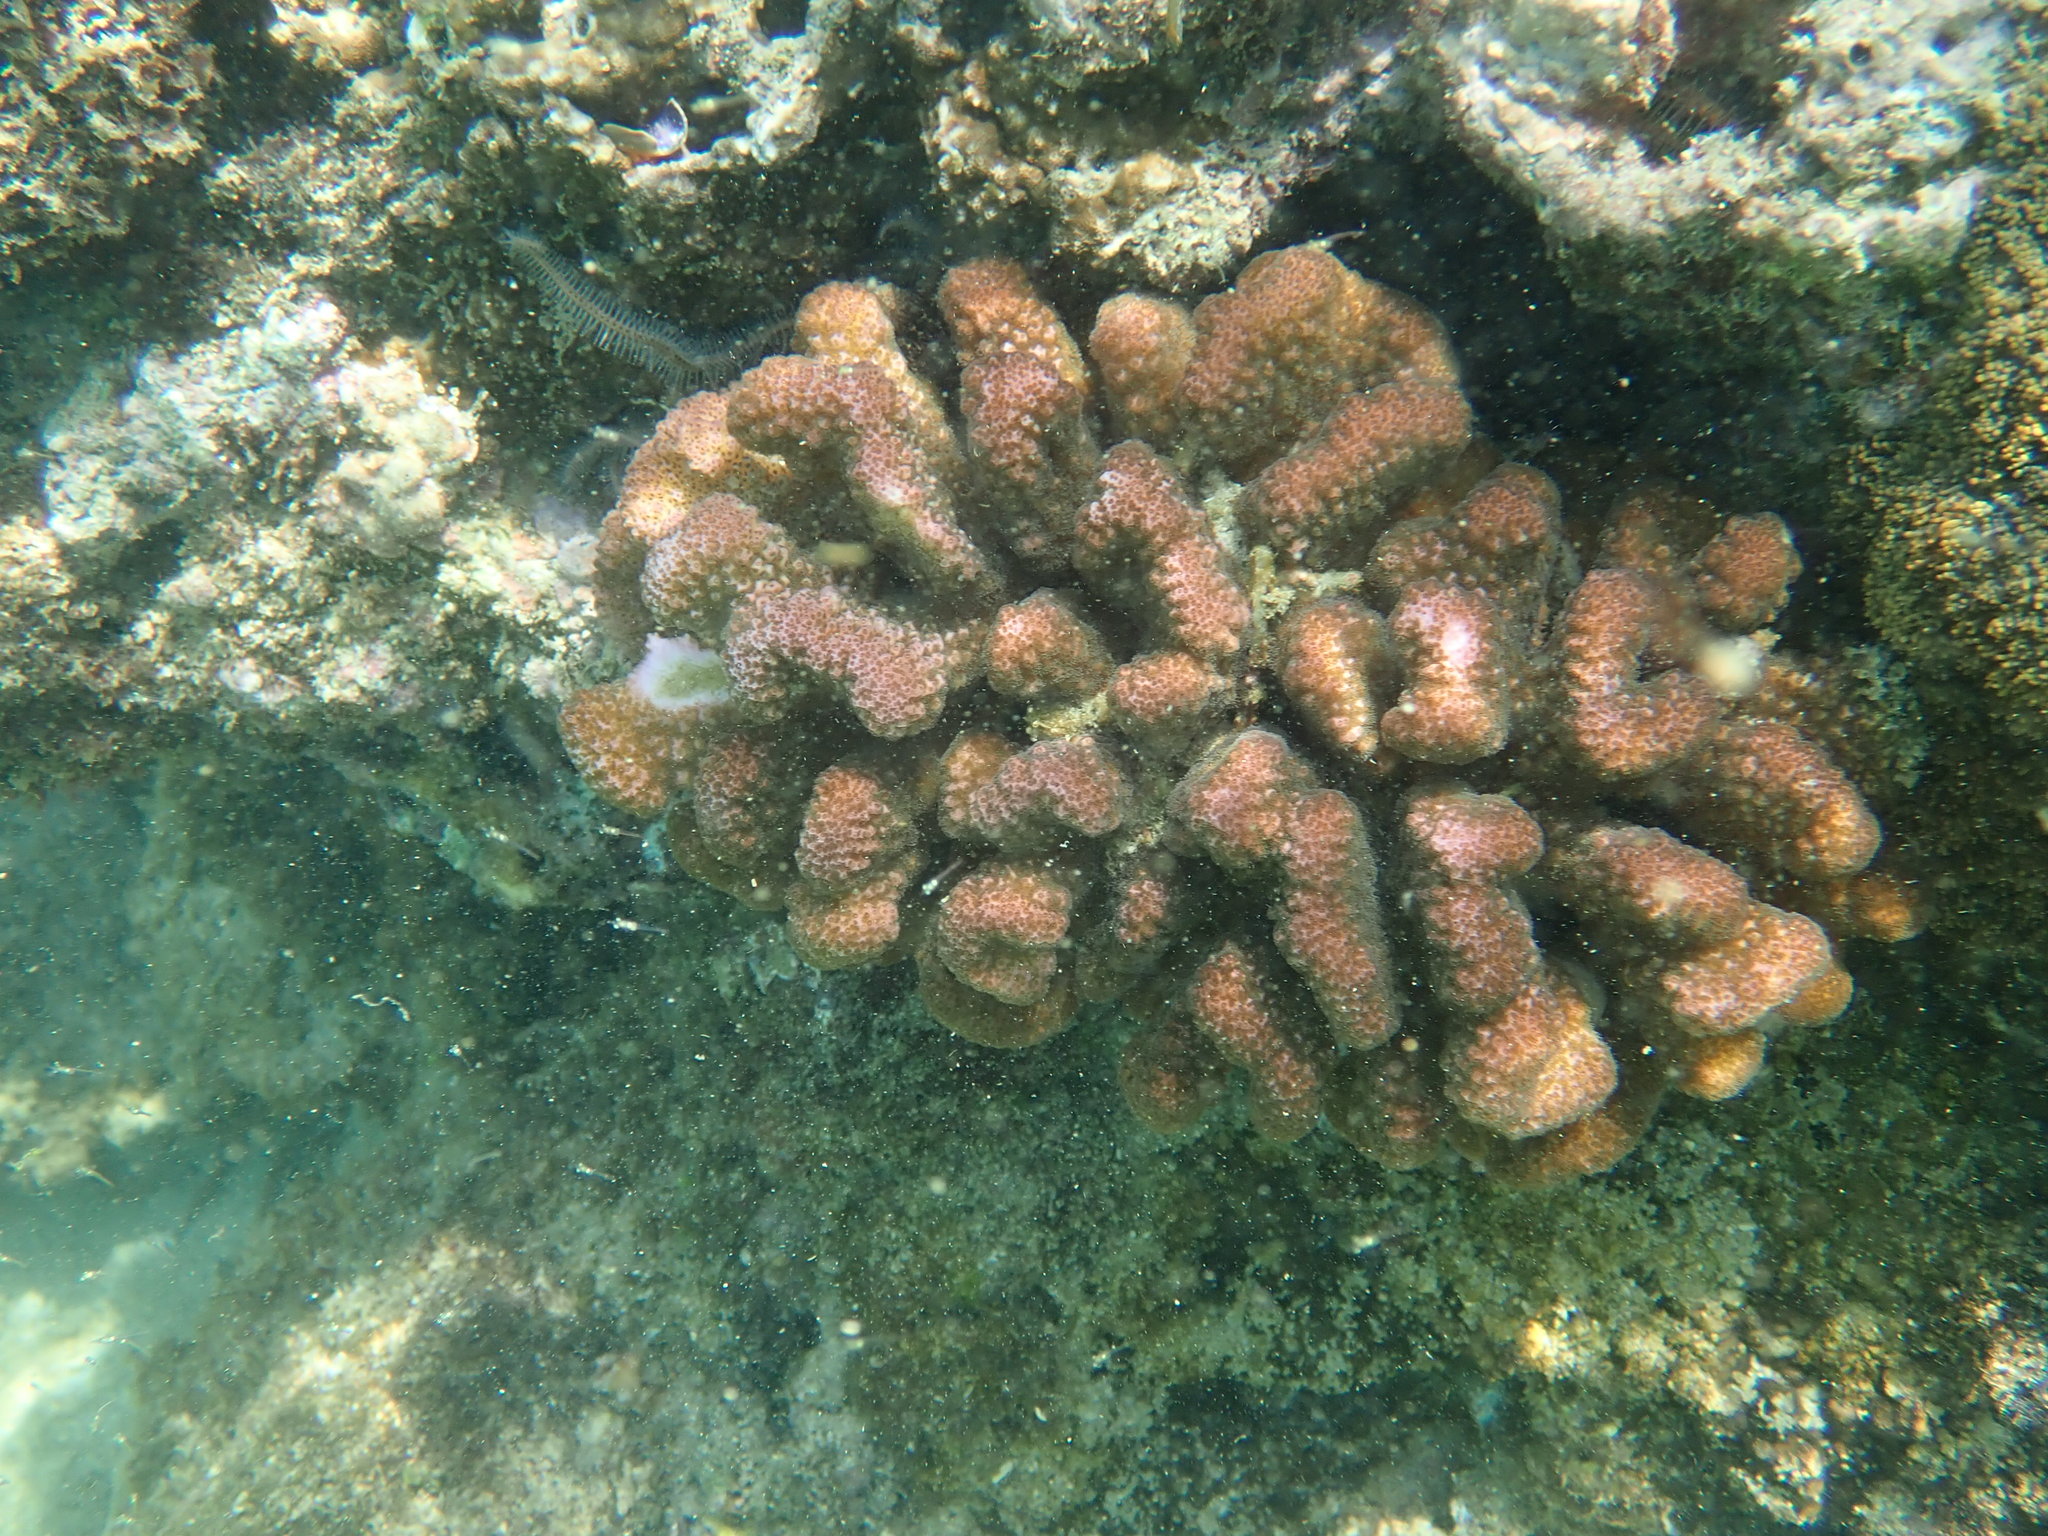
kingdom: Animalia
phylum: Cnidaria
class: Anthozoa
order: Scleractinia
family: Pocilloporidae
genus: Pocillopora
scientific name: Pocillopora meandrina
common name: Cauliflower coral
